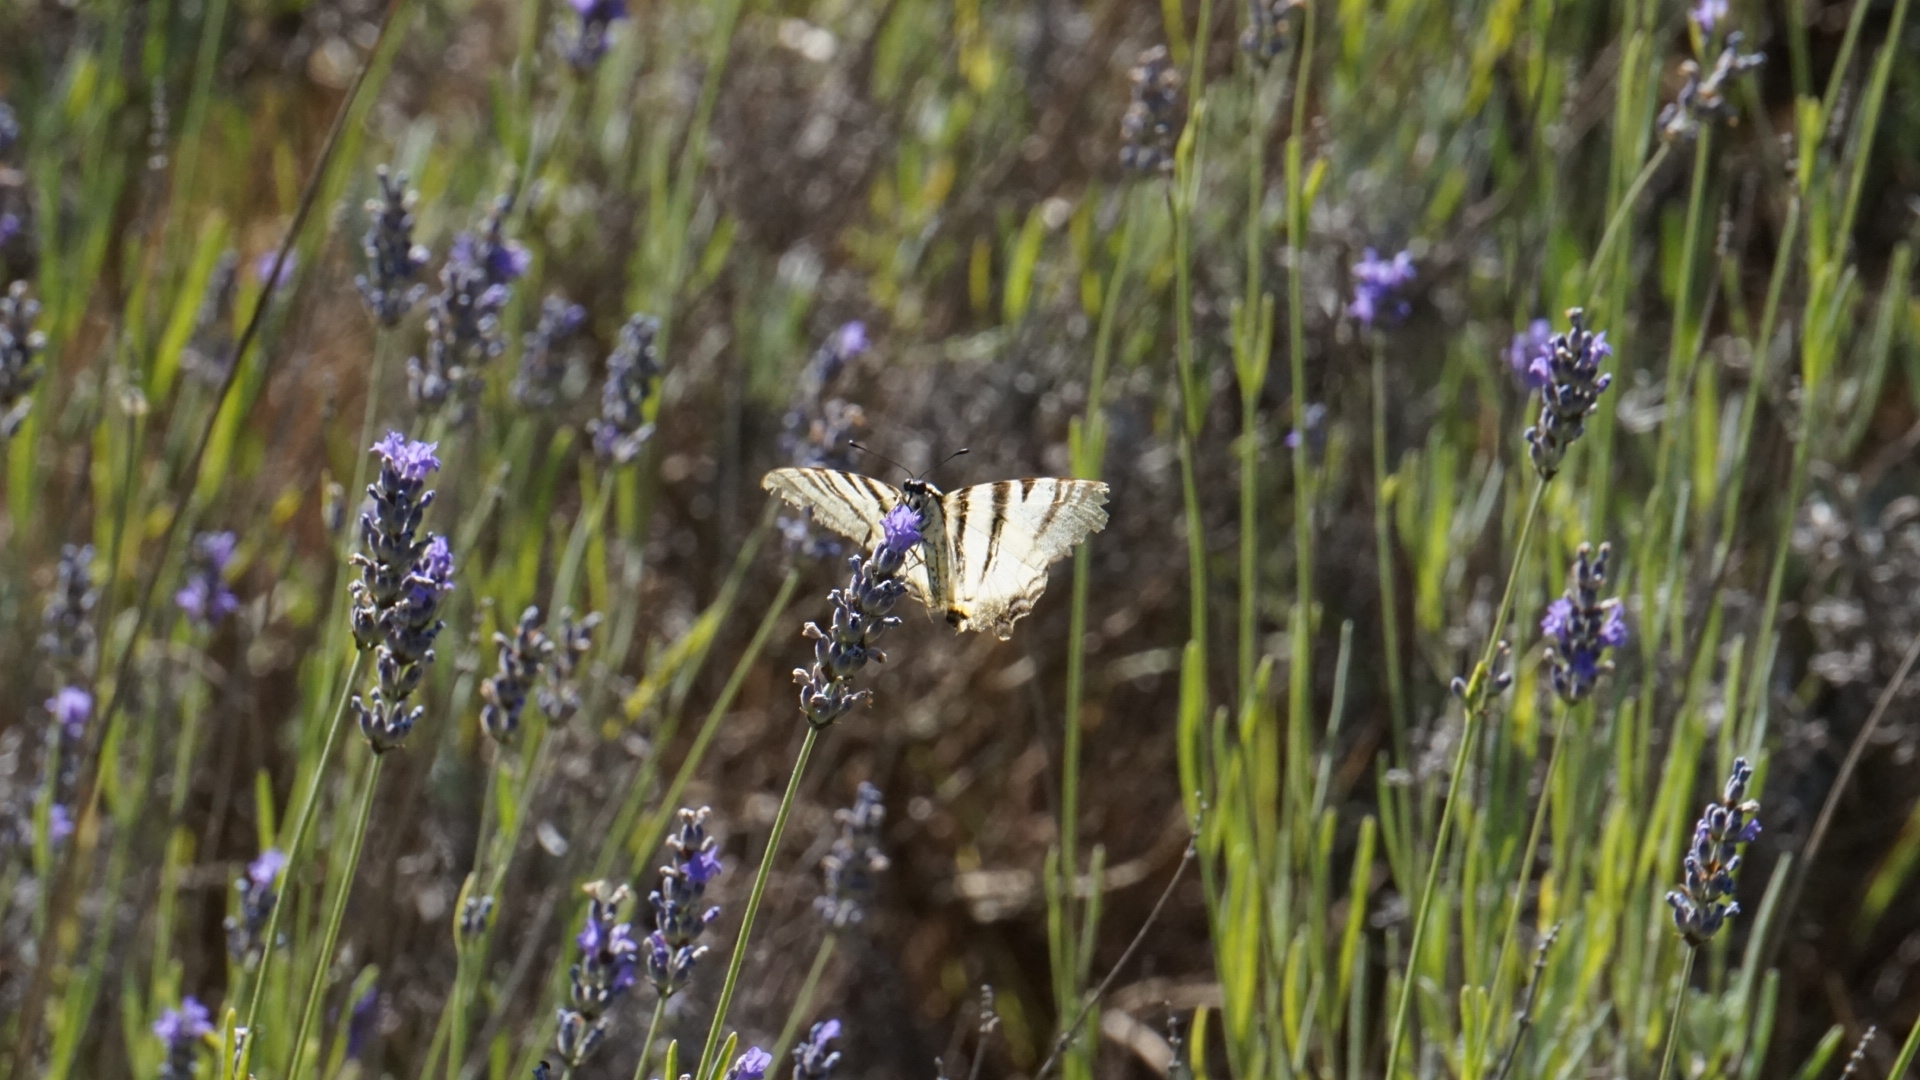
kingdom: Animalia
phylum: Arthropoda
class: Insecta
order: Lepidoptera
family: Papilionidae
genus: Iphiclides
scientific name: Iphiclides podalirius
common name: Scarce swallowtail
